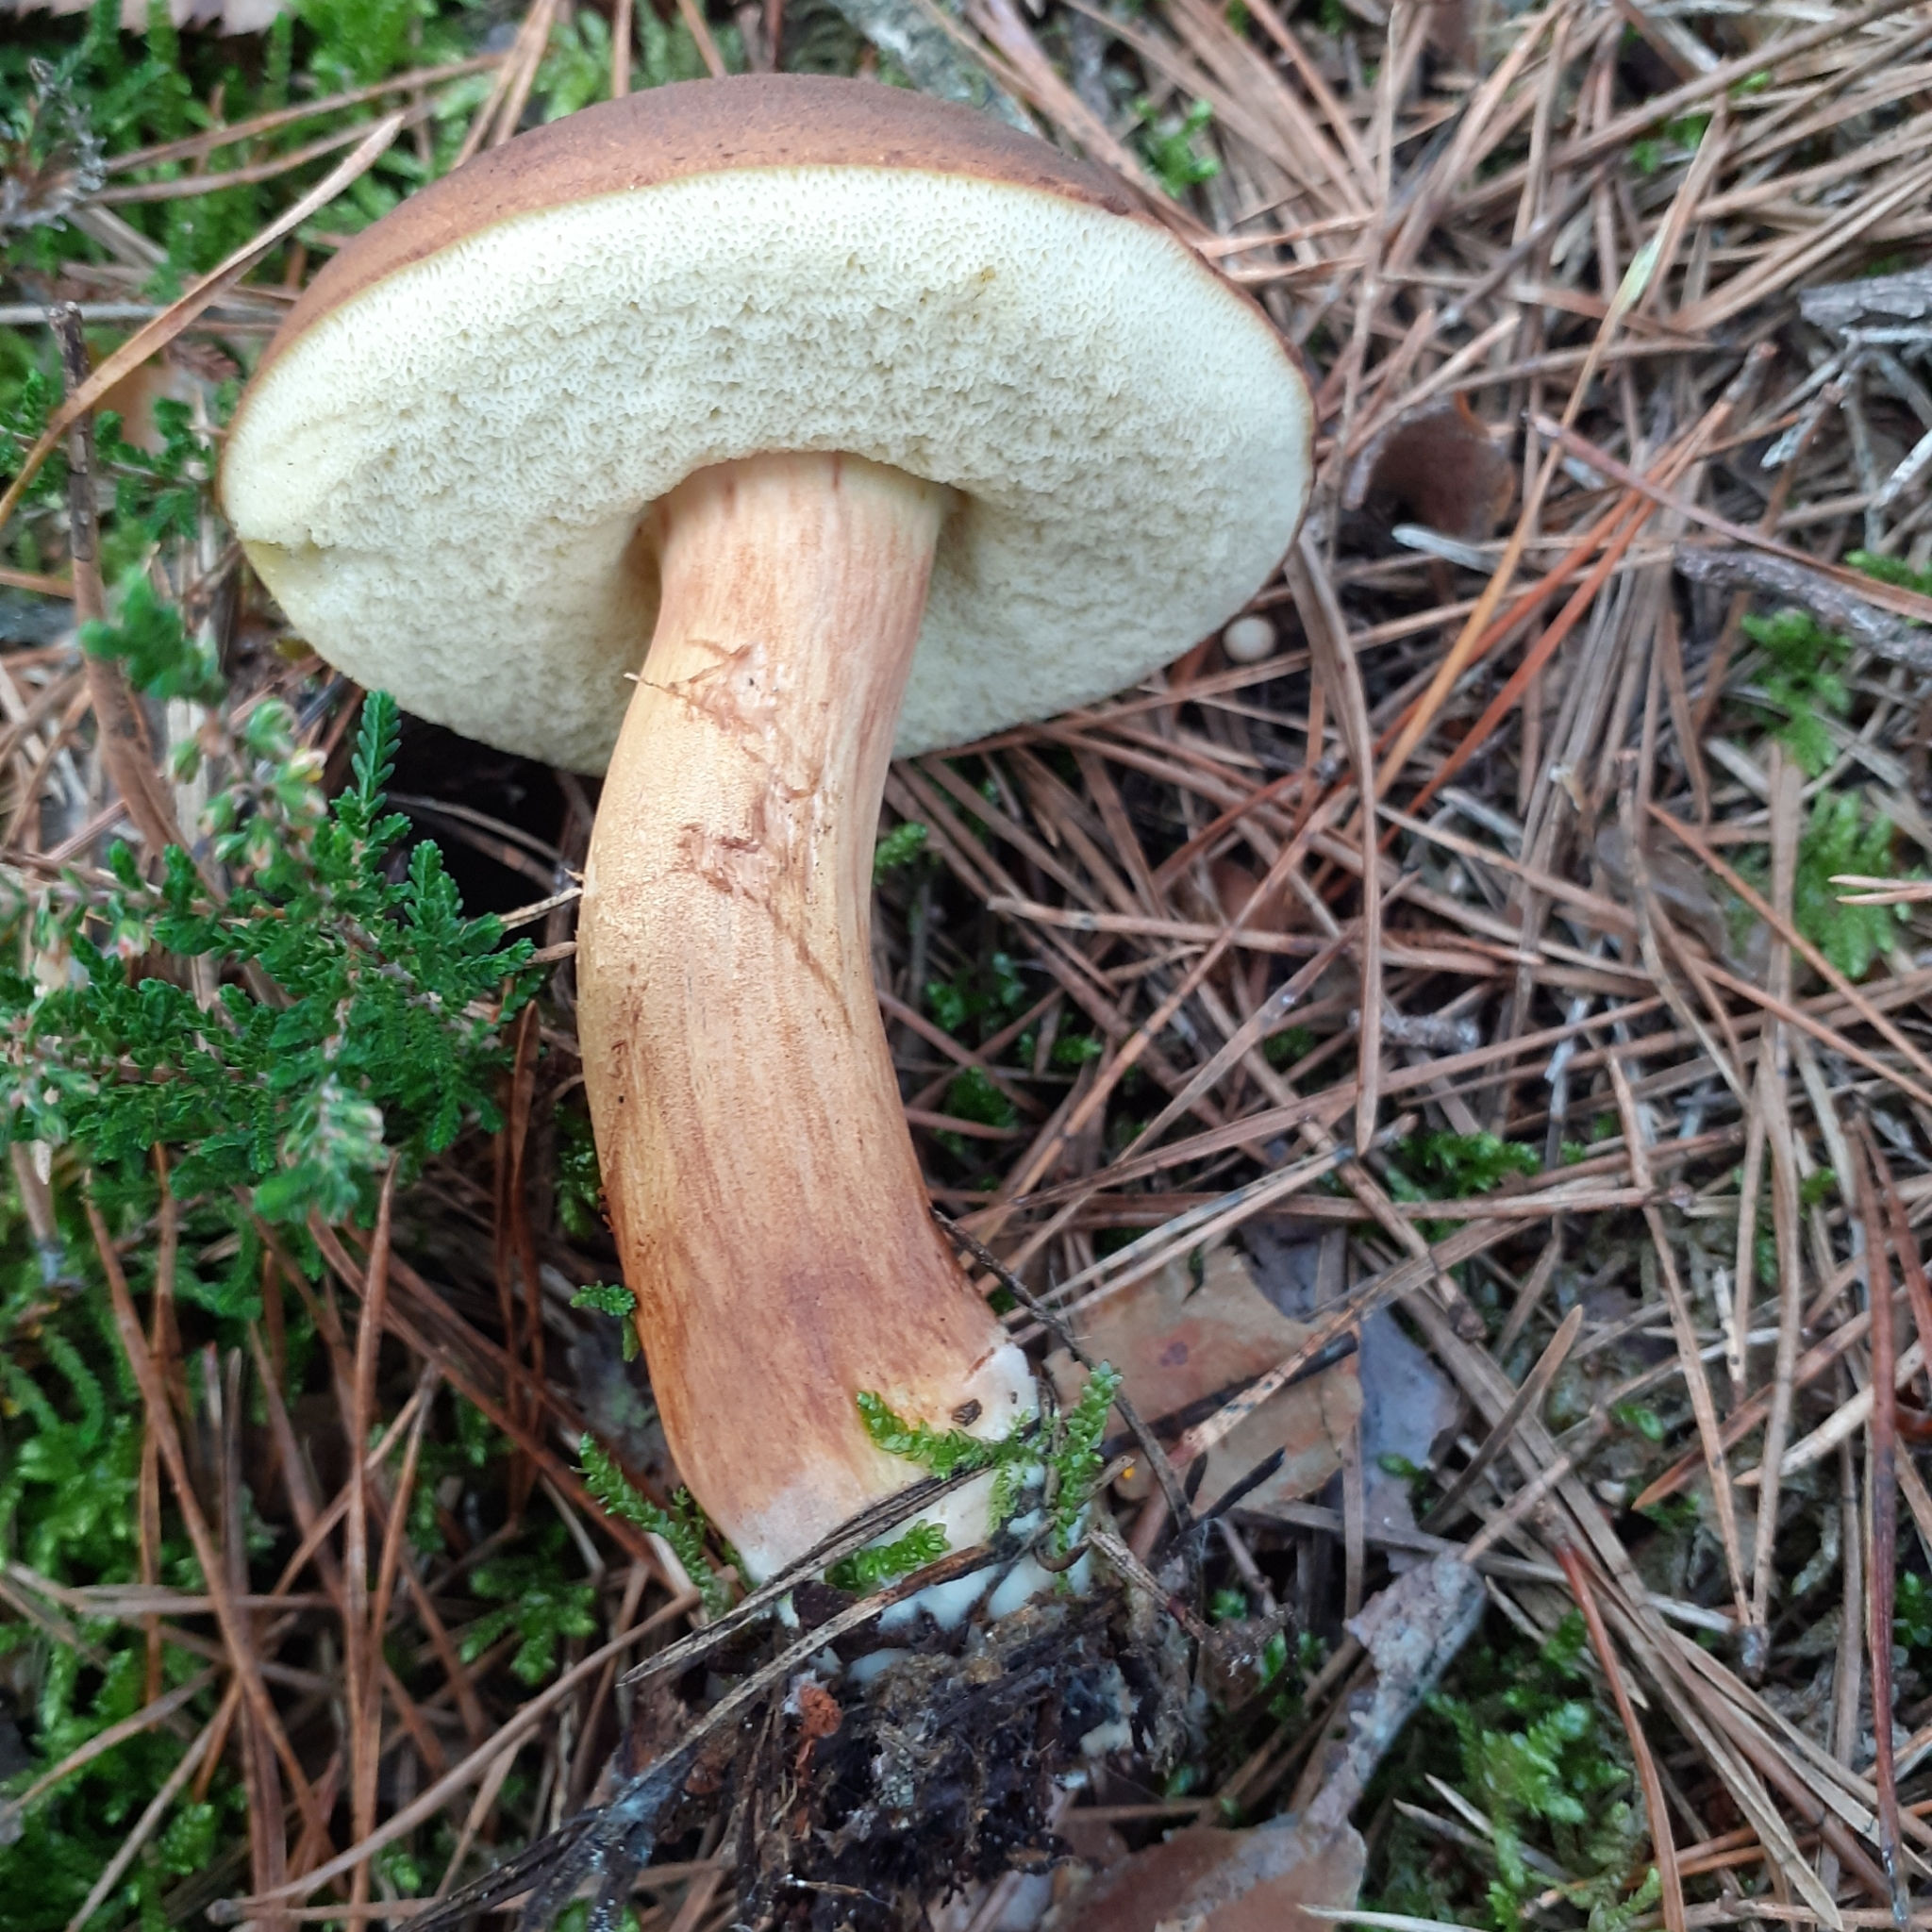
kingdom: Fungi
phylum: Basidiomycota
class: Agaricomycetes
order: Boletales
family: Boletaceae
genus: Imleria
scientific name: Imleria badia
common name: Bay bolete
